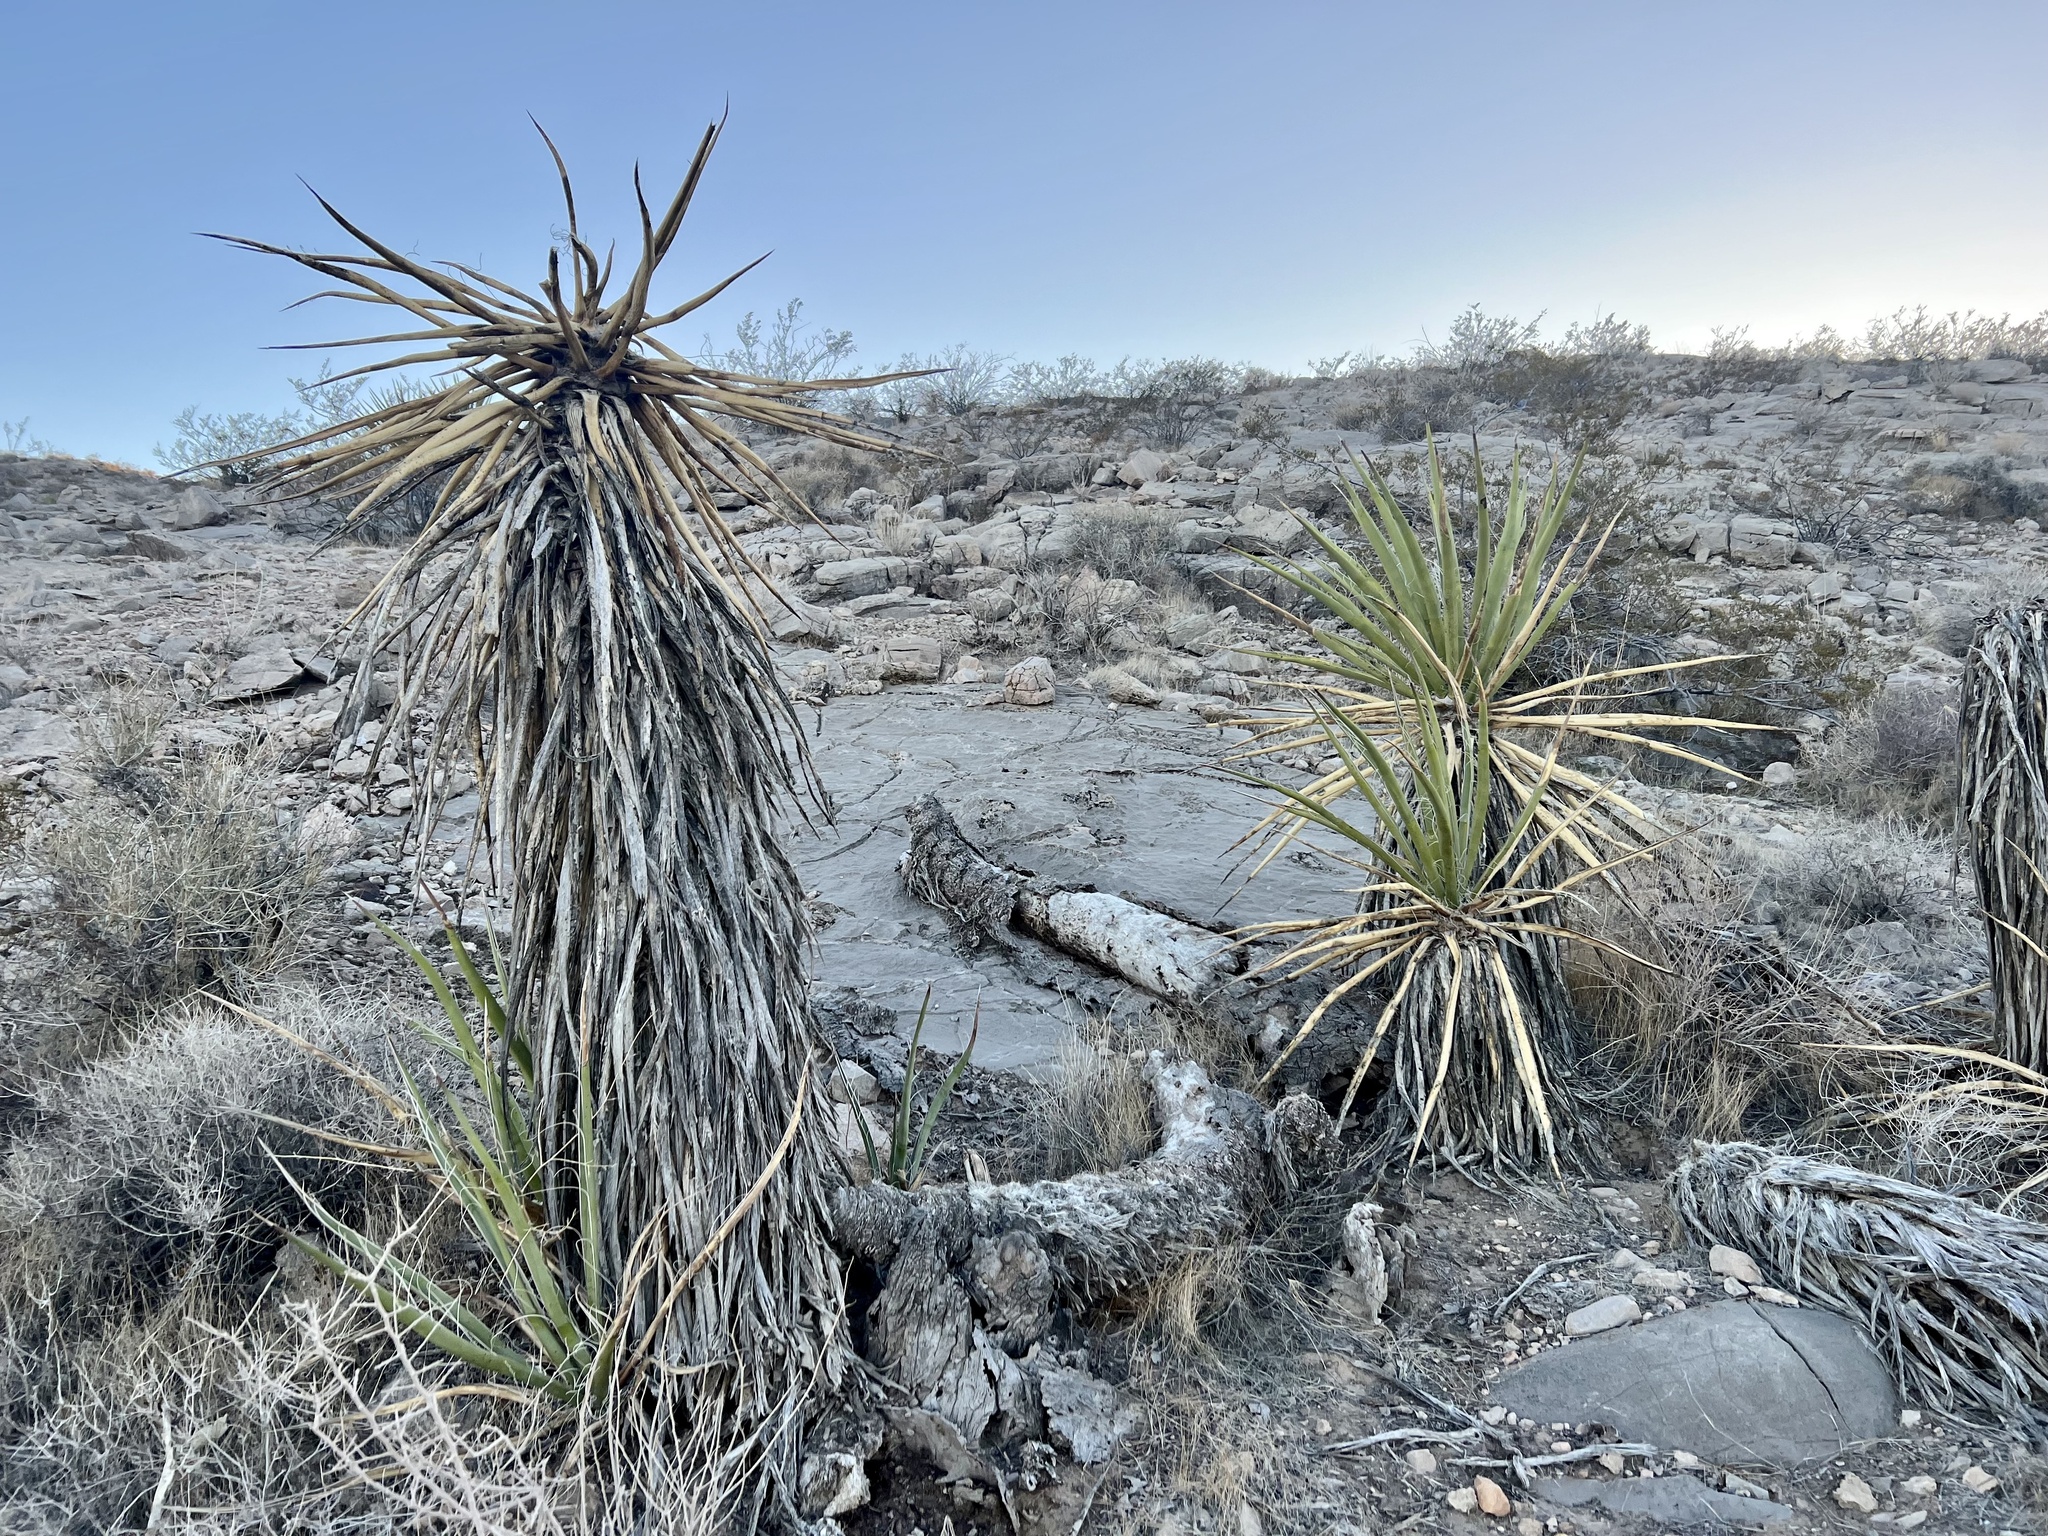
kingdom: Plantae
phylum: Tracheophyta
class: Liliopsida
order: Asparagales
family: Asparagaceae
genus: Yucca
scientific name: Yucca schidigera
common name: Mojave yucca
